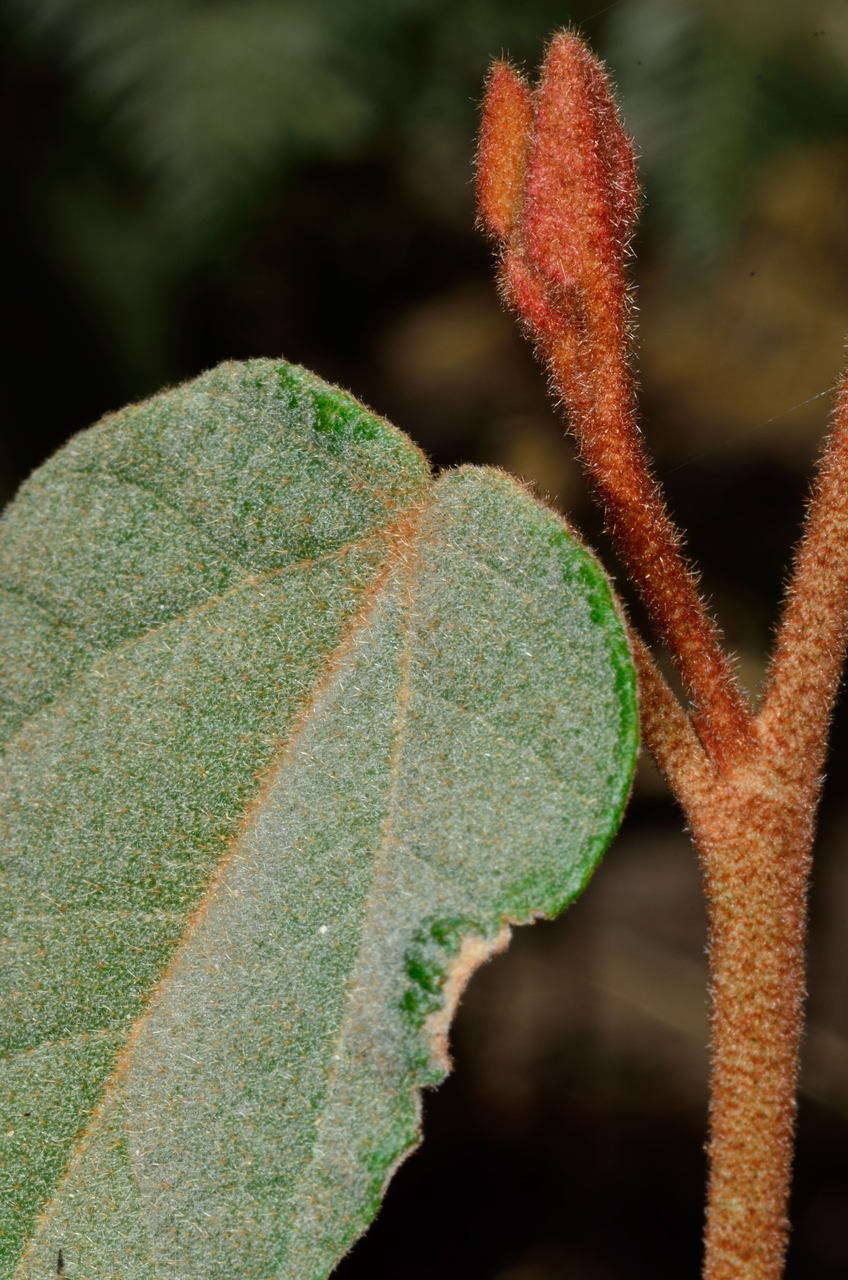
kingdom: Plantae
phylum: Tracheophyta
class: Magnoliopsida
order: Malvales
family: Malvaceae
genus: Lasiopetalum
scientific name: Lasiopetalum macrophyllum
